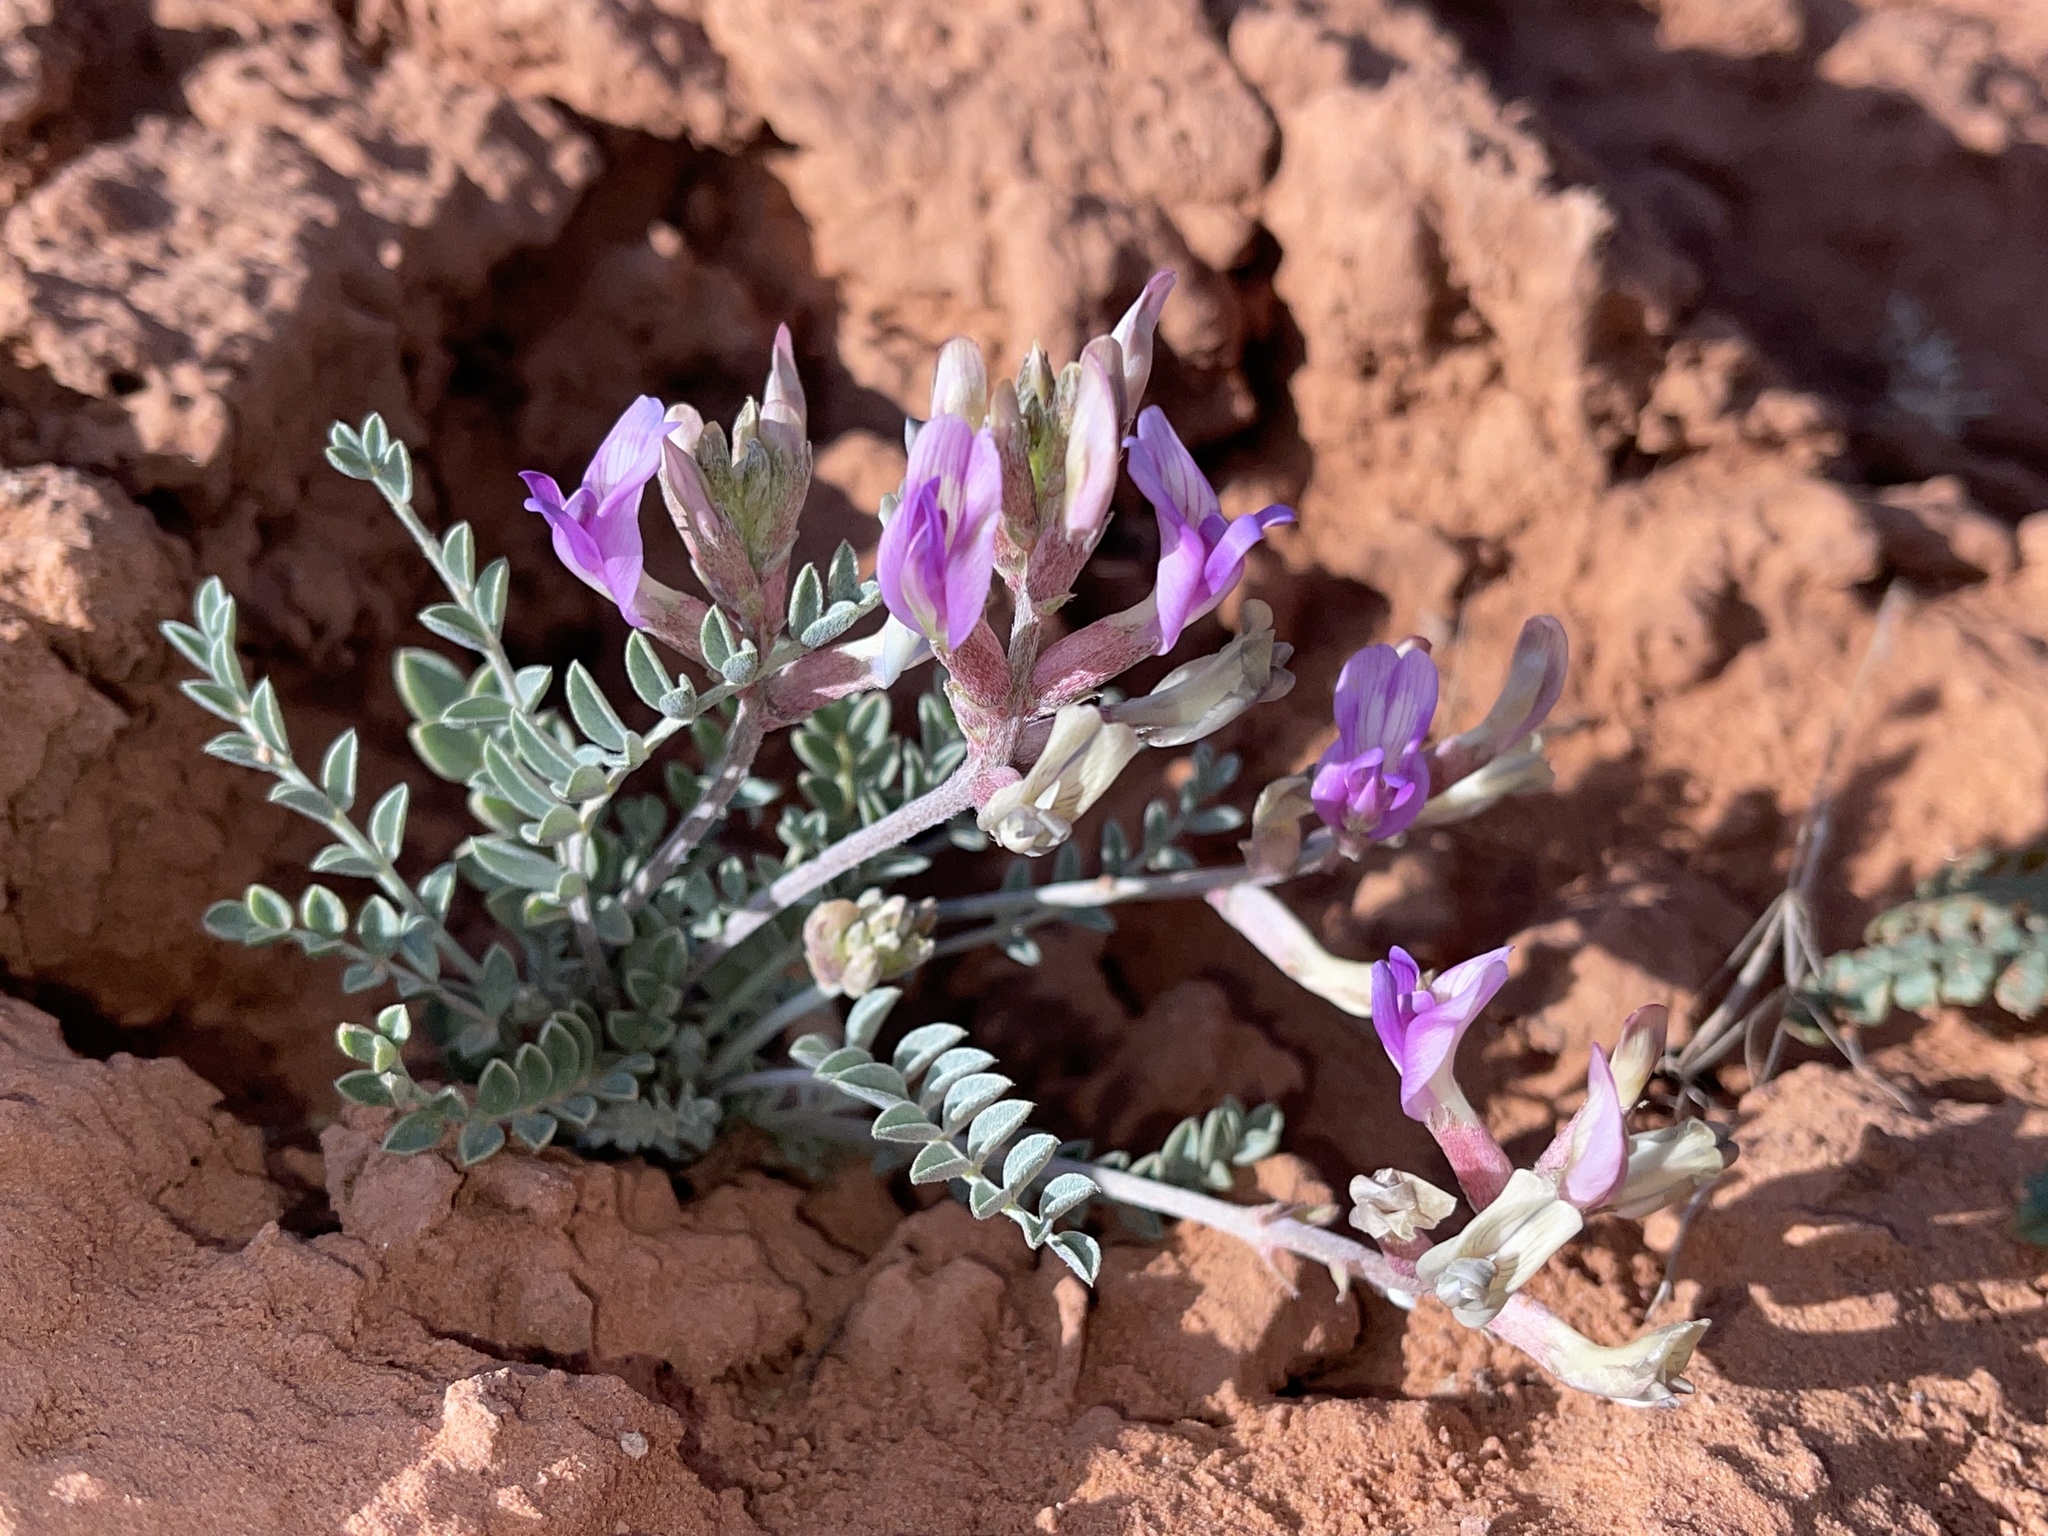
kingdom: Plantae
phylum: Tracheophyta
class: Magnoliopsida
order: Fabales
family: Fabaceae
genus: Astragalus
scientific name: Astragalus amphioxys
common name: Crescent milk-vetch
